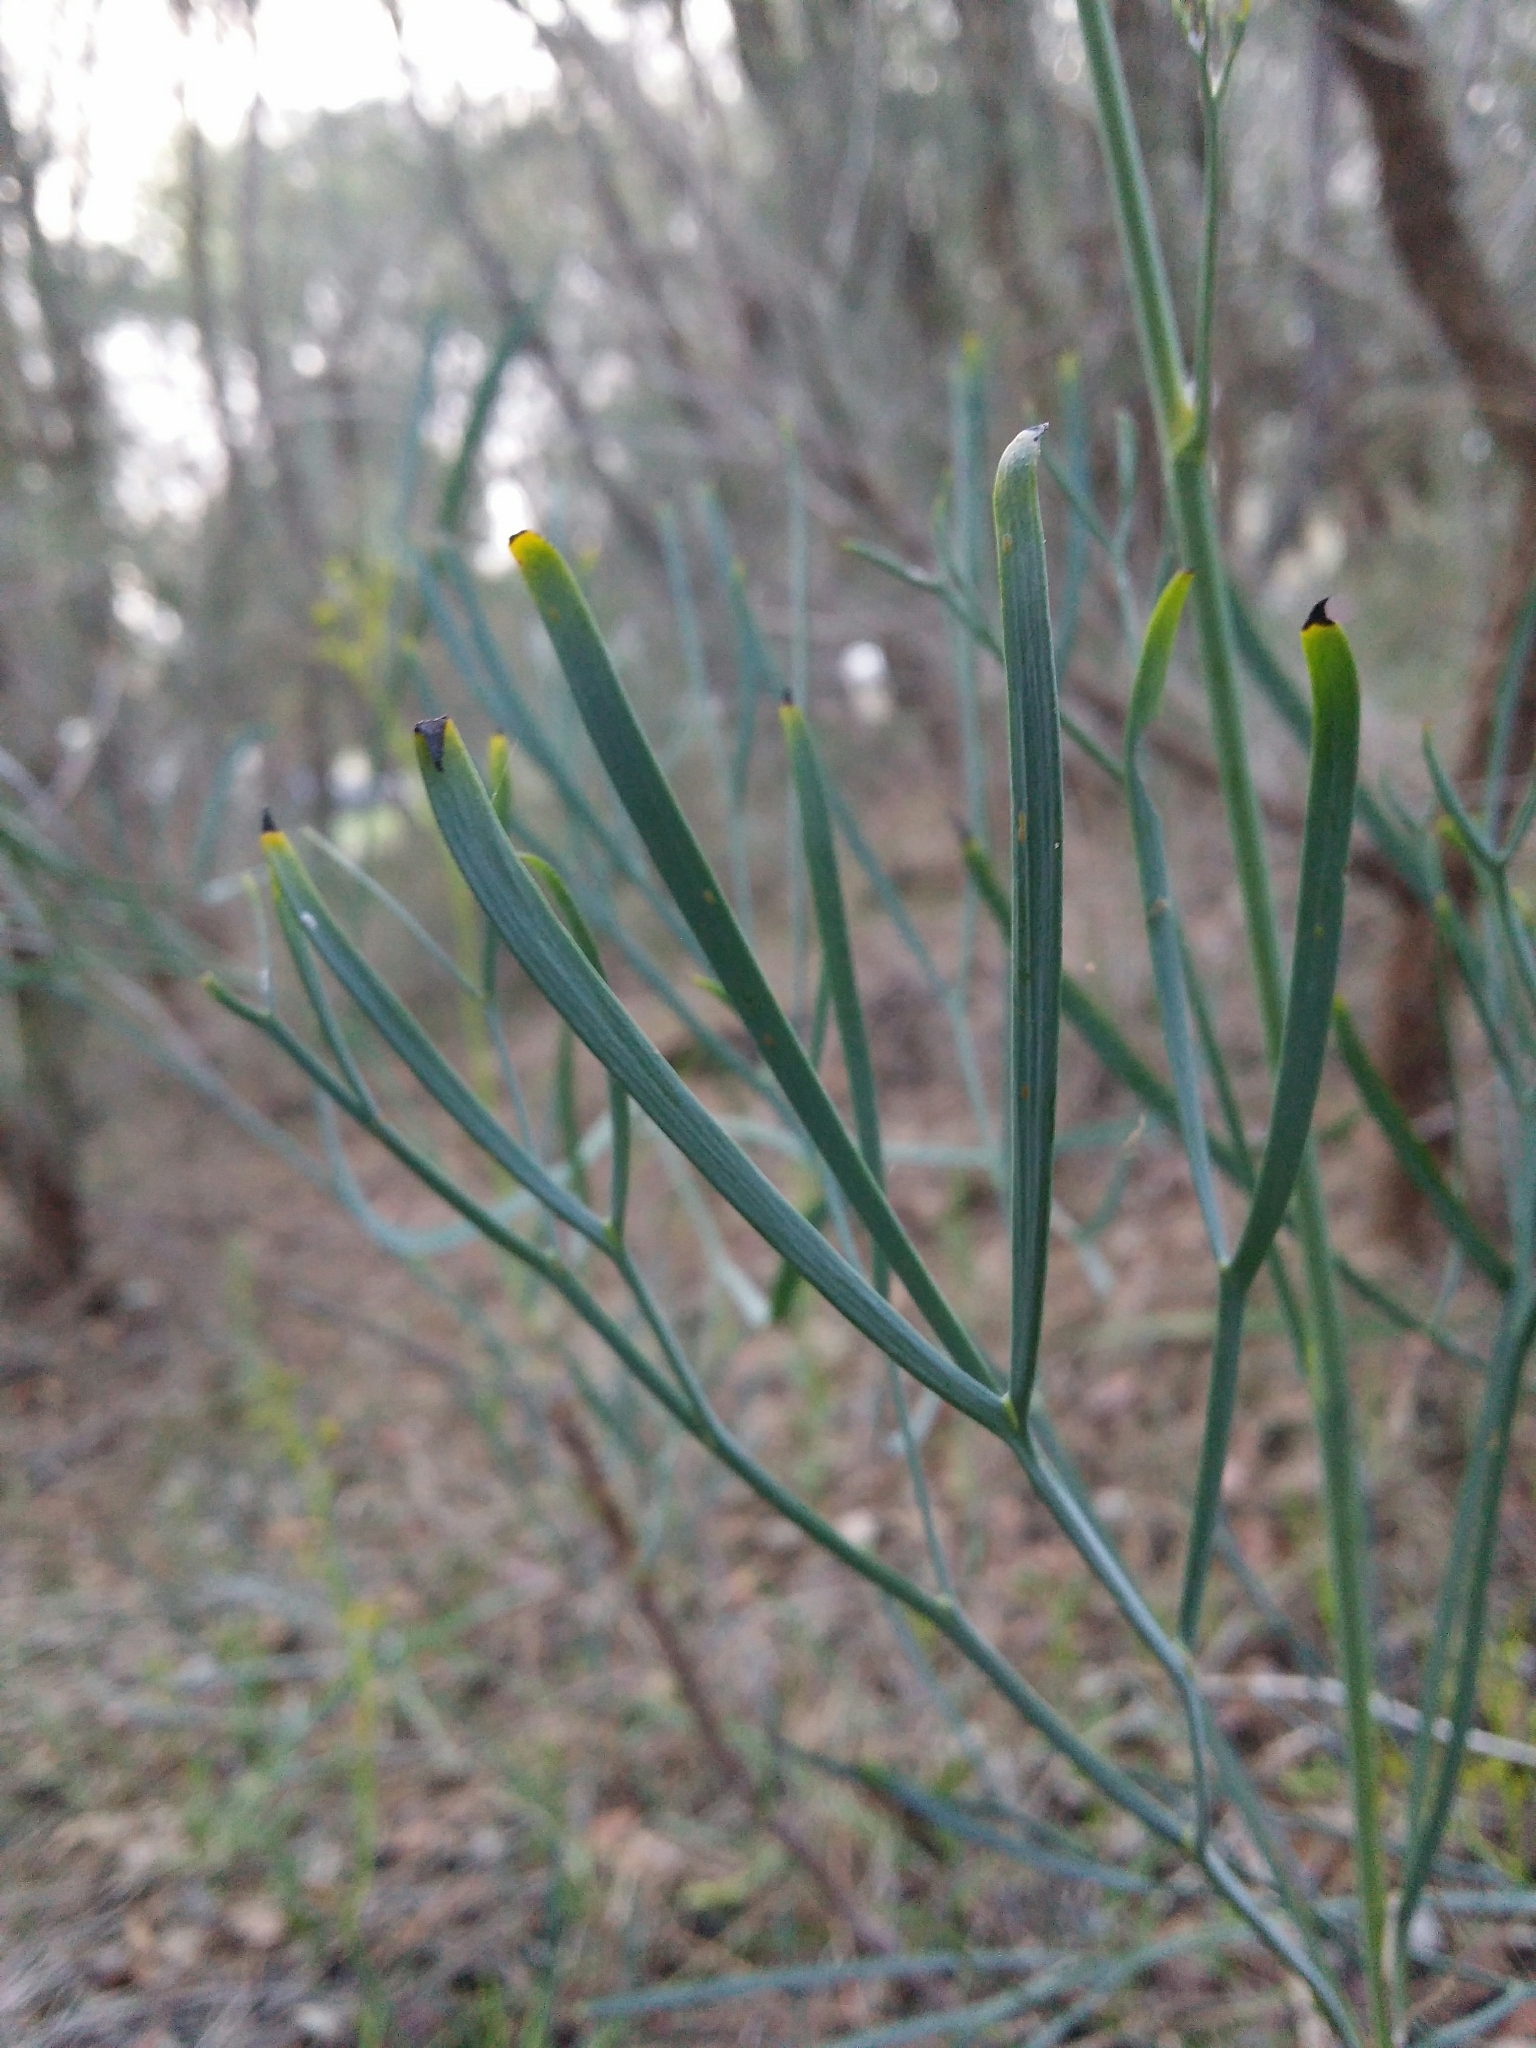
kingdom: Plantae
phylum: Tracheophyta
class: Magnoliopsida
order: Proteales
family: Proteaceae
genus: Stirlingia
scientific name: Stirlingia latifolia
